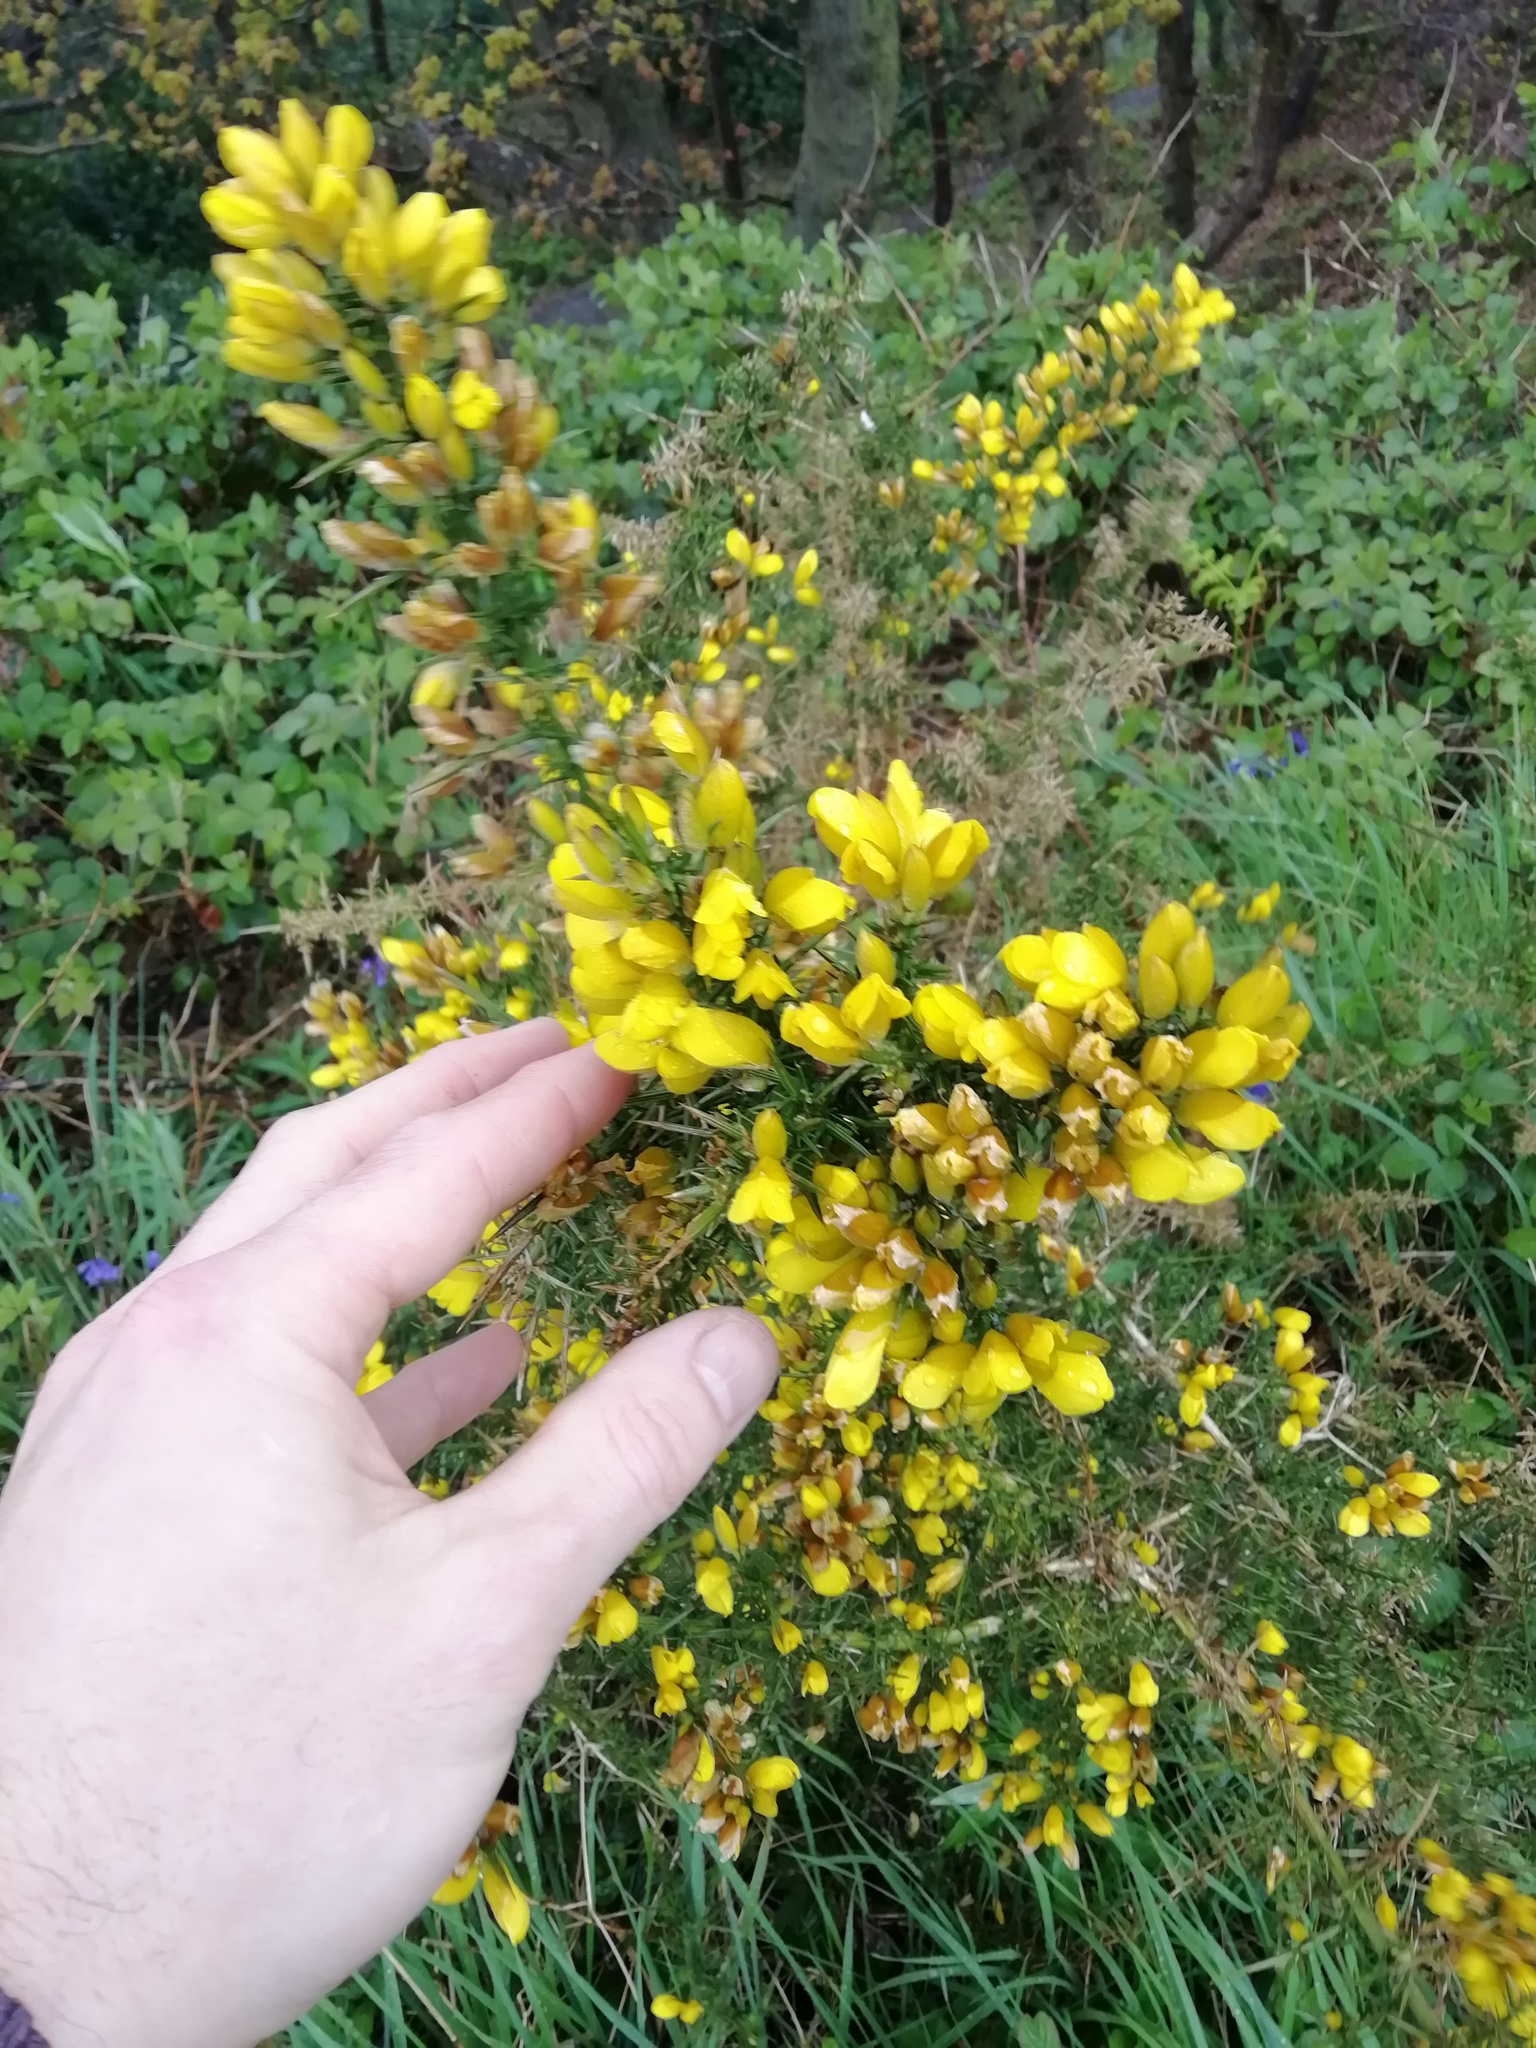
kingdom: Plantae
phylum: Tracheophyta
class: Magnoliopsida
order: Fabales
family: Fabaceae
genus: Ulex
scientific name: Ulex europaeus
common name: Common gorse
